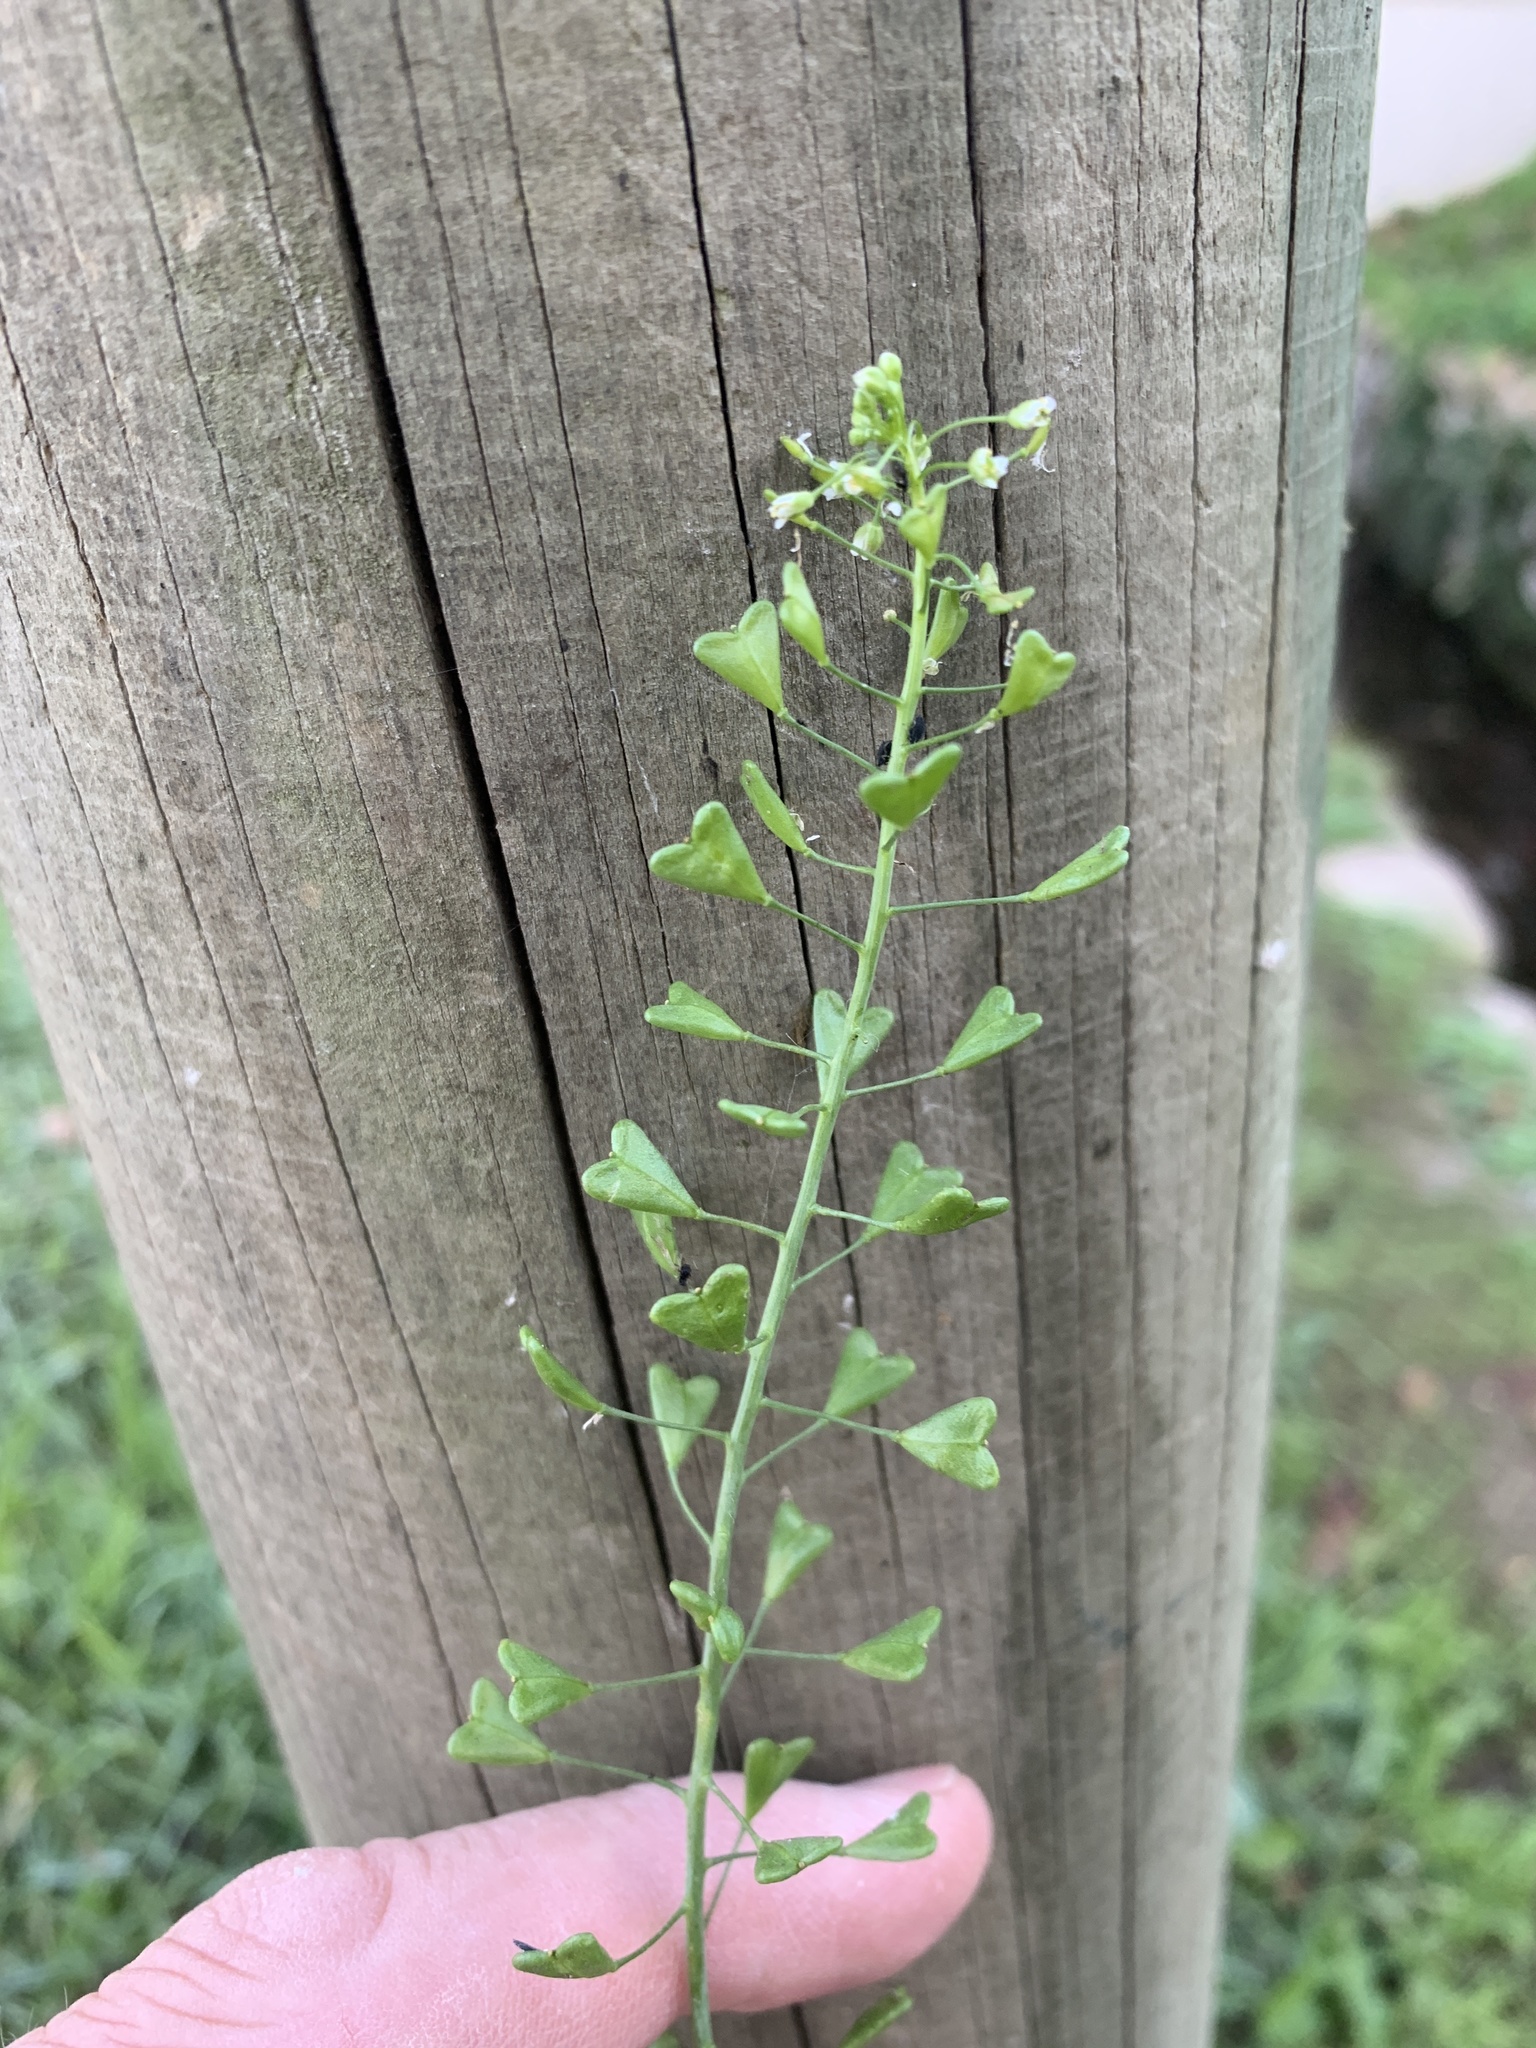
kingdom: Plantae
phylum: Tracheophyta
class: Magnoliopsida
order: Brassicales
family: Brassicaceae
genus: Capsella
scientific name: Capsella bursa-pastoris
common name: Shepherd's purse
